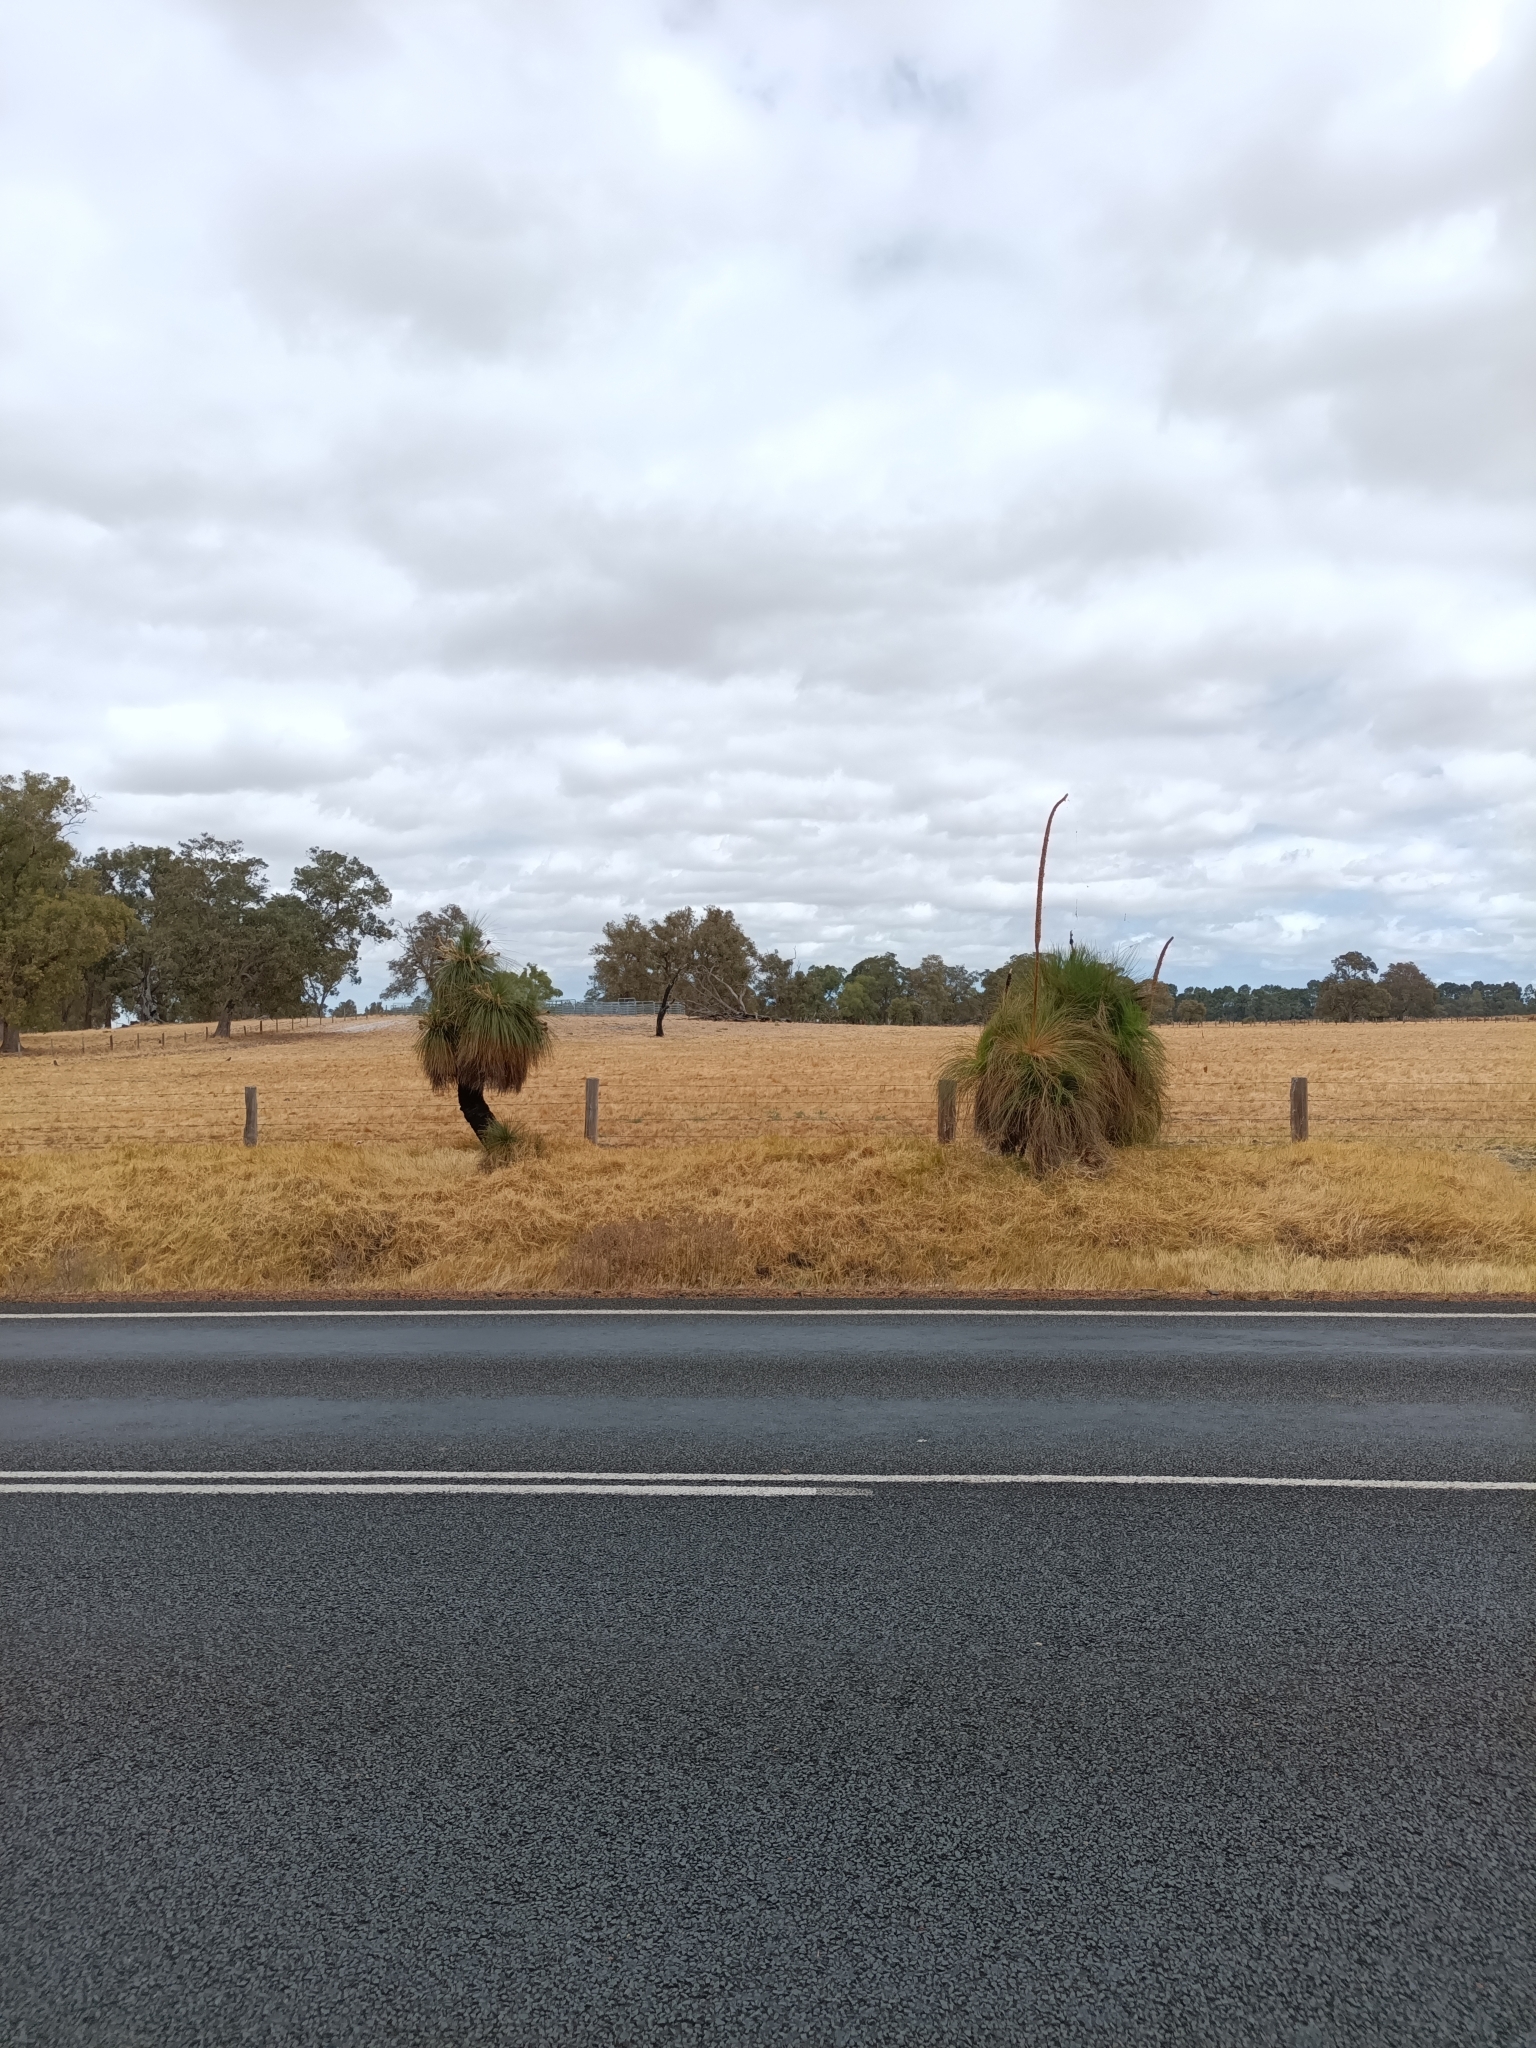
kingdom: Plantae
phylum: Tracheophyta
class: Liliopsida
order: Arecales
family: Dasypogonaceae
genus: Kingia
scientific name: Kingia australis
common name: Black gin
